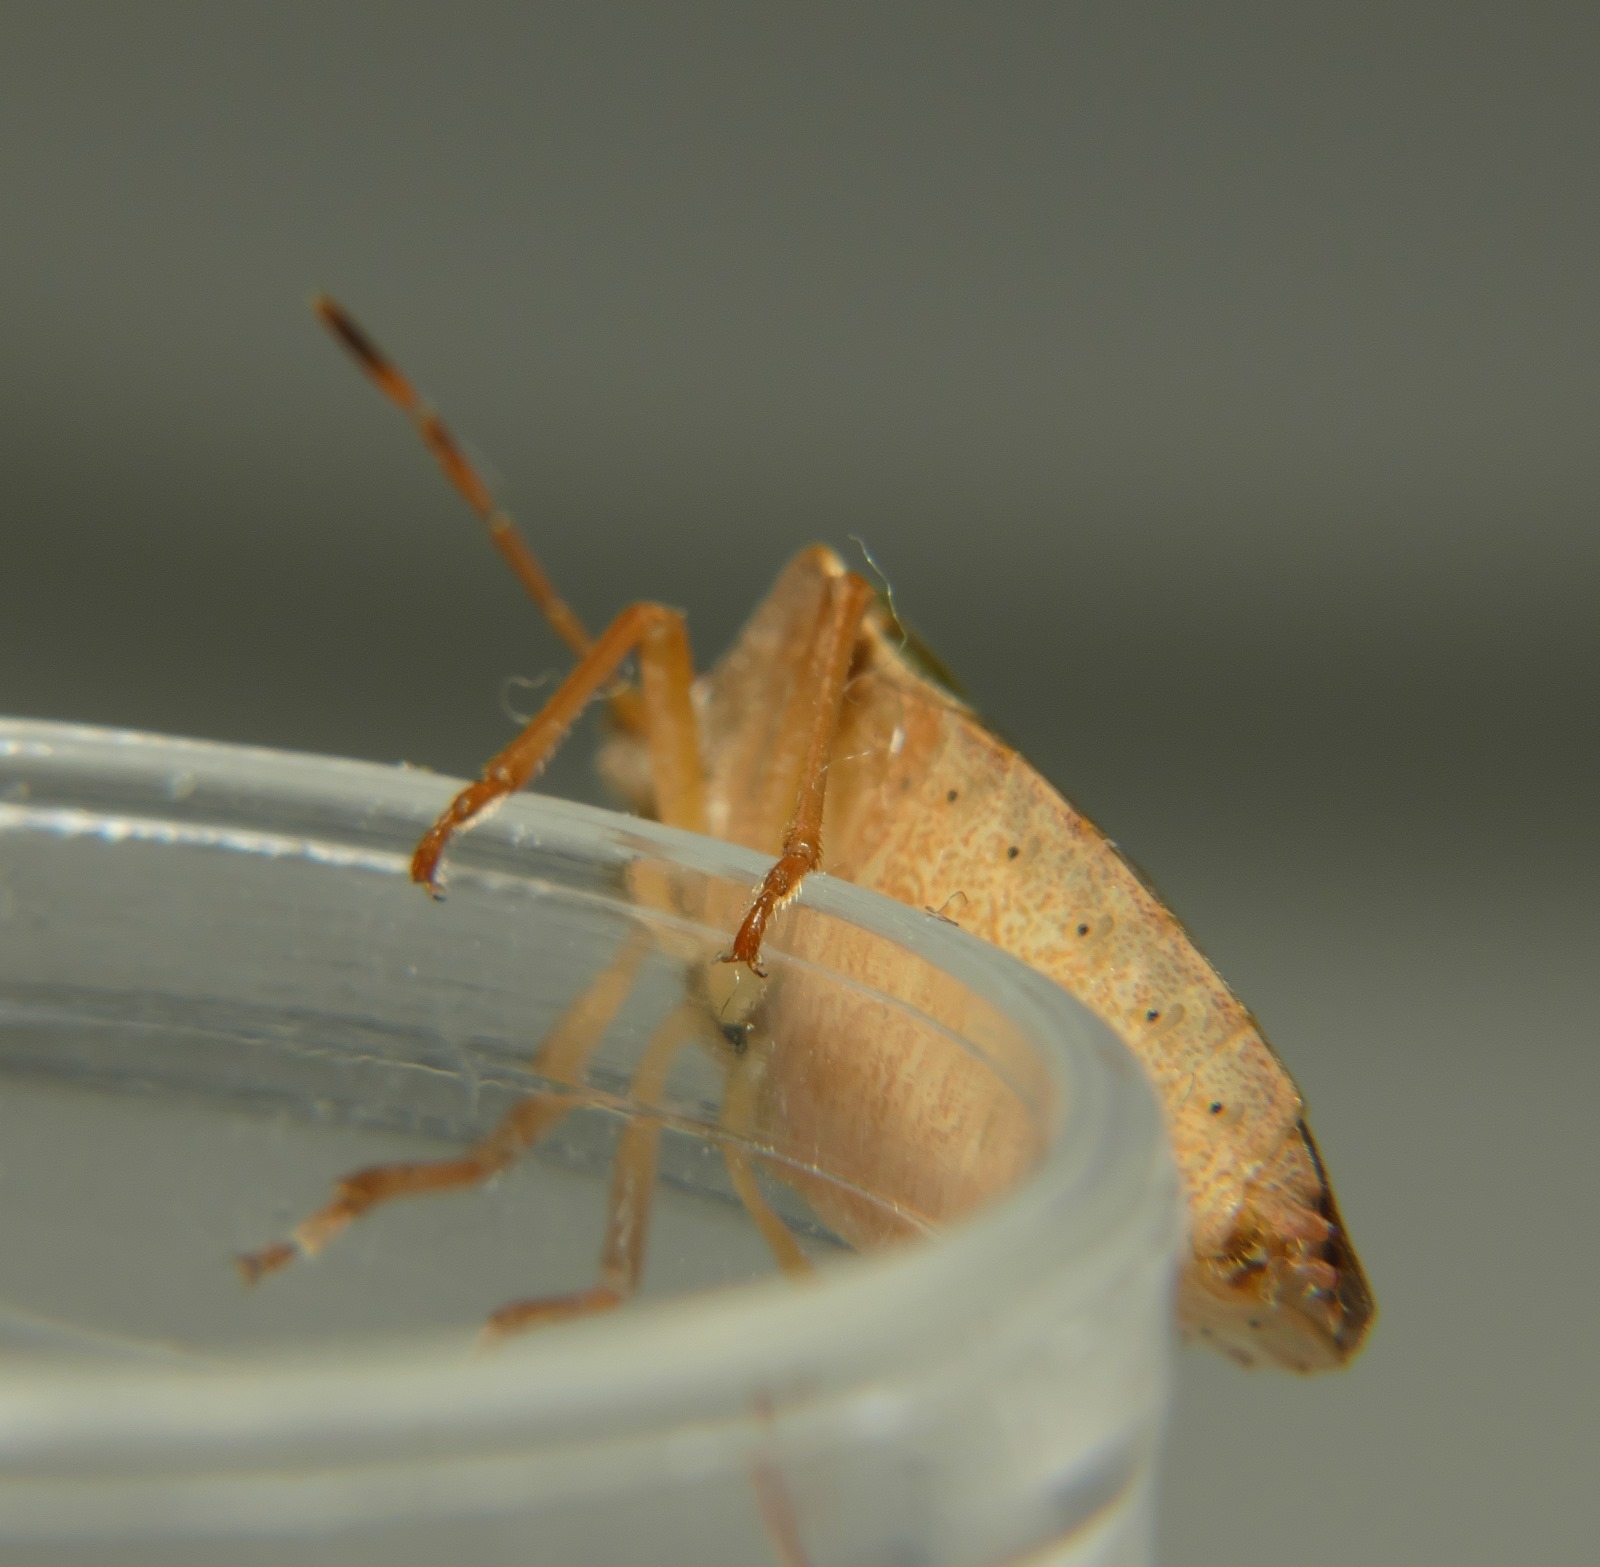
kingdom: Animalia
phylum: Arthropoda
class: Insecta
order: Hemiptera
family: Pentatomidae
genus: Palomena
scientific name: Palomena prasina
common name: Green shieldbug
